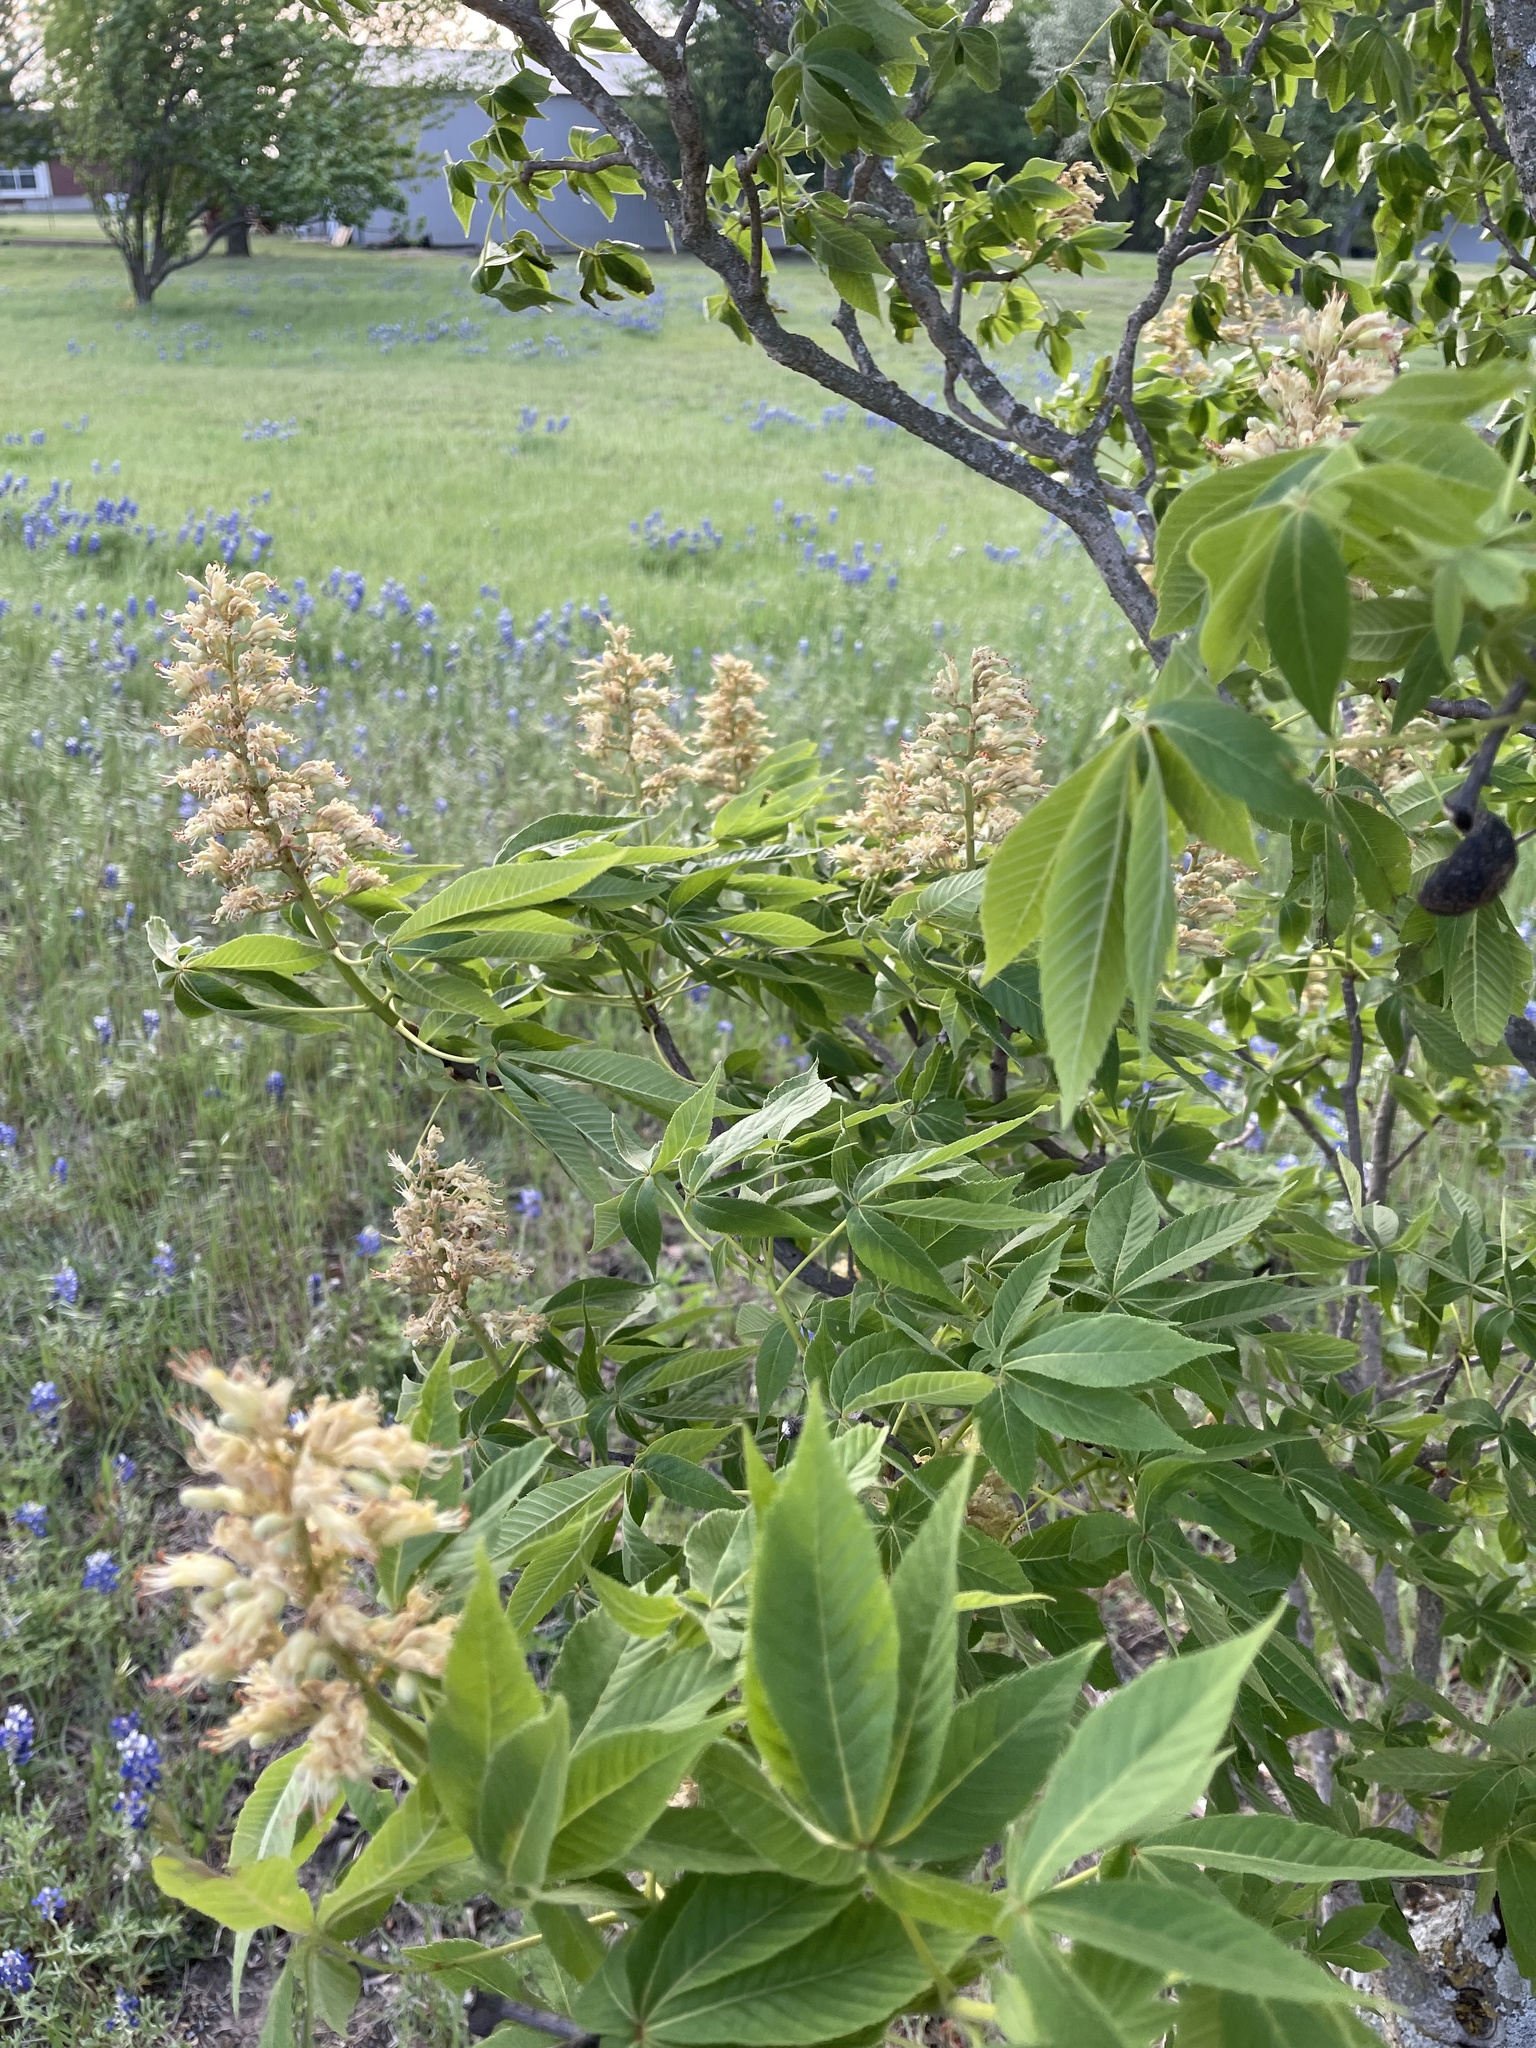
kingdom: Plantae
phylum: Tracheophyta
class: Magnoliopsida
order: Sapindales
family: Sapindaceae
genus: Aesculus
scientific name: Aesculus glabra
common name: Ohio buckeye
